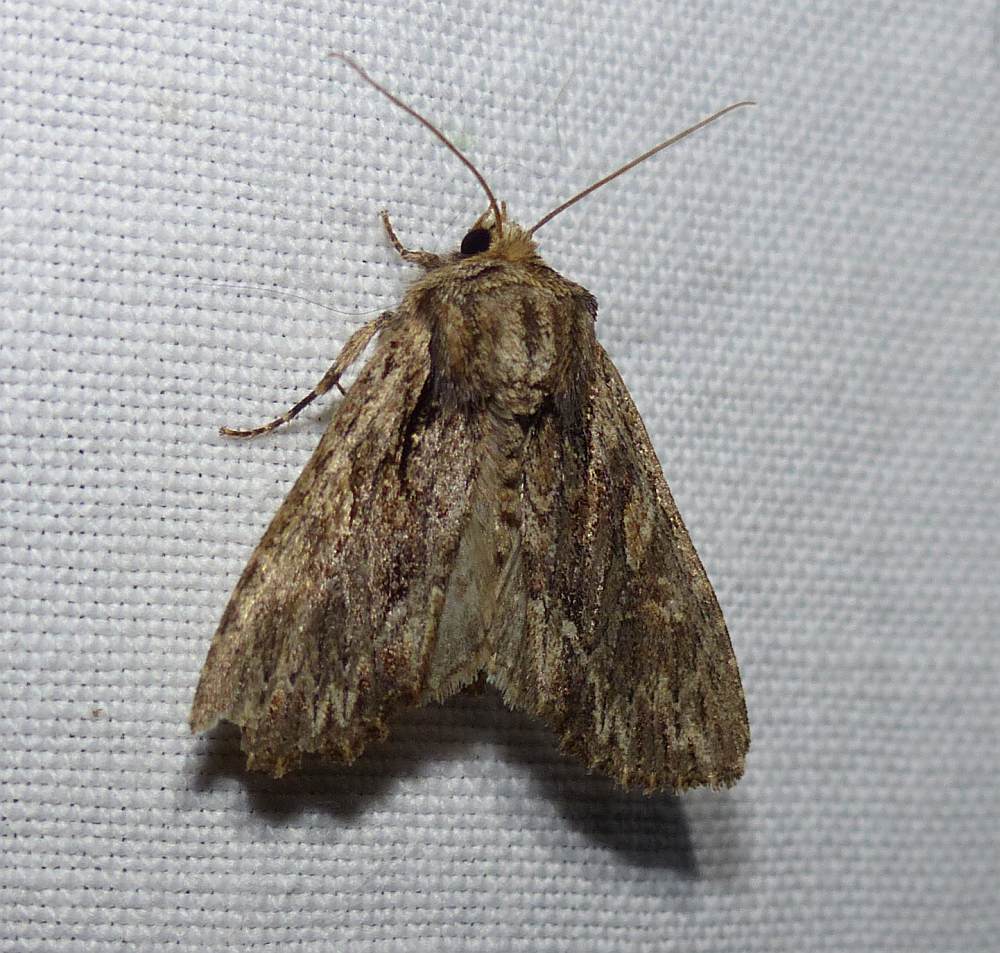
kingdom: Animalia
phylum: Arthropoda
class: Insecta
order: Lepidoptera
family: Noctuidae
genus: Achatia
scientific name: Achatia confusa
